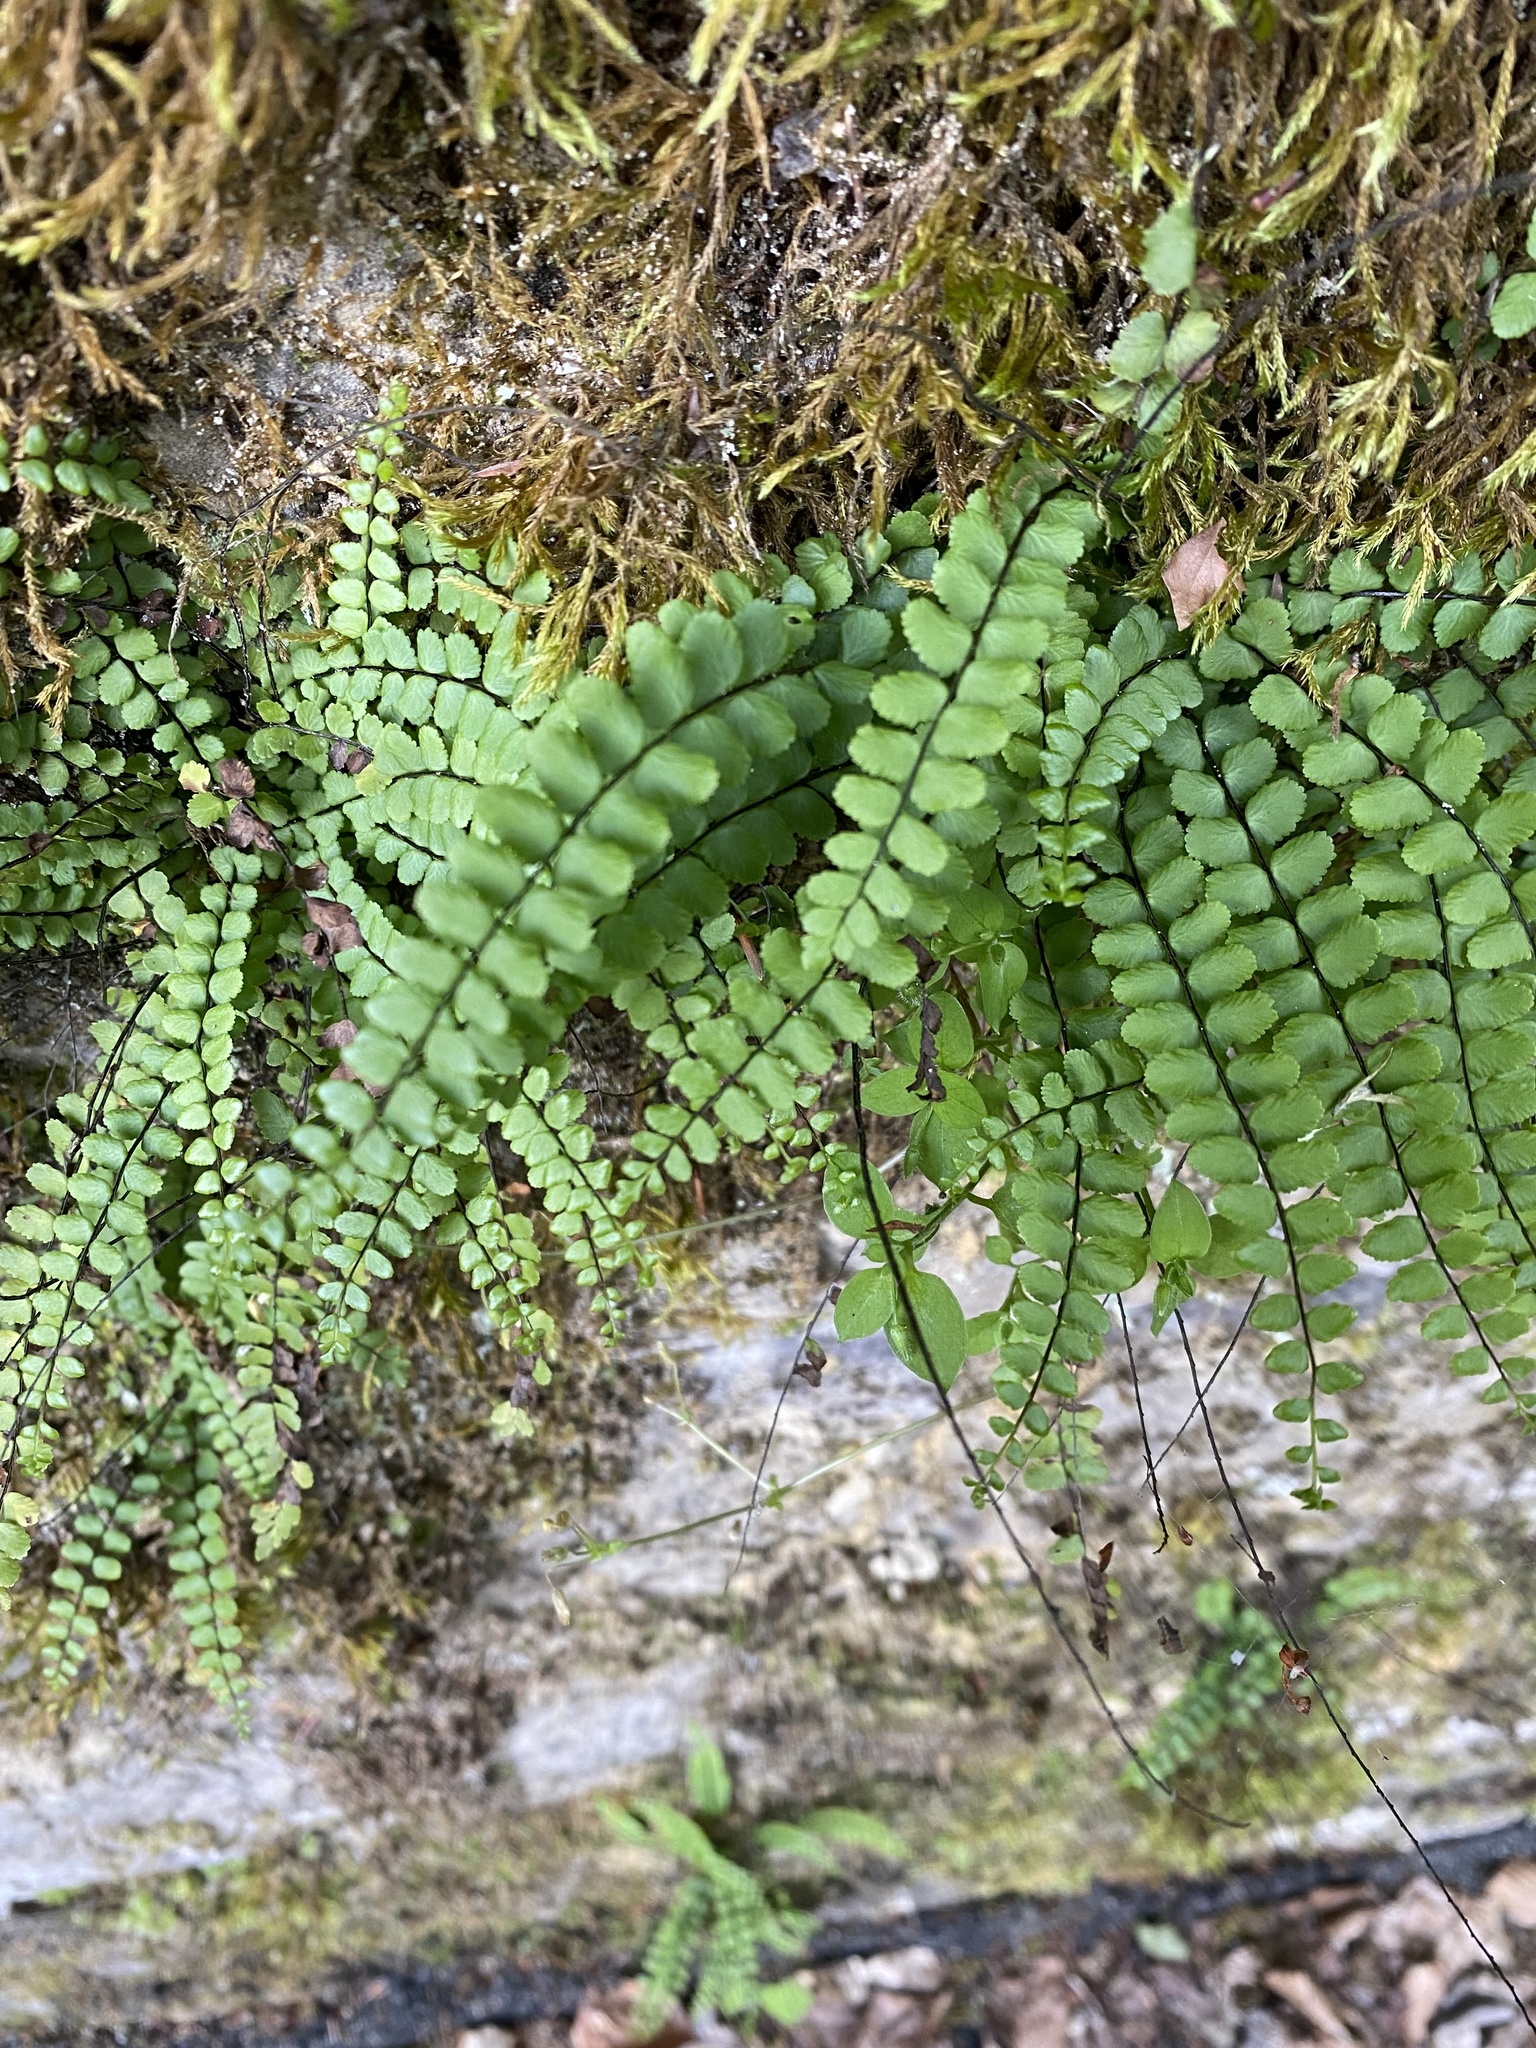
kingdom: Plantae
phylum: Tracheophyta
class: Polypodiopsida
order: Polypodiales
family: Aspleniaceae
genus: Asplenium
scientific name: Asplenium trichomanes
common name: Maidenhair spleenwort
